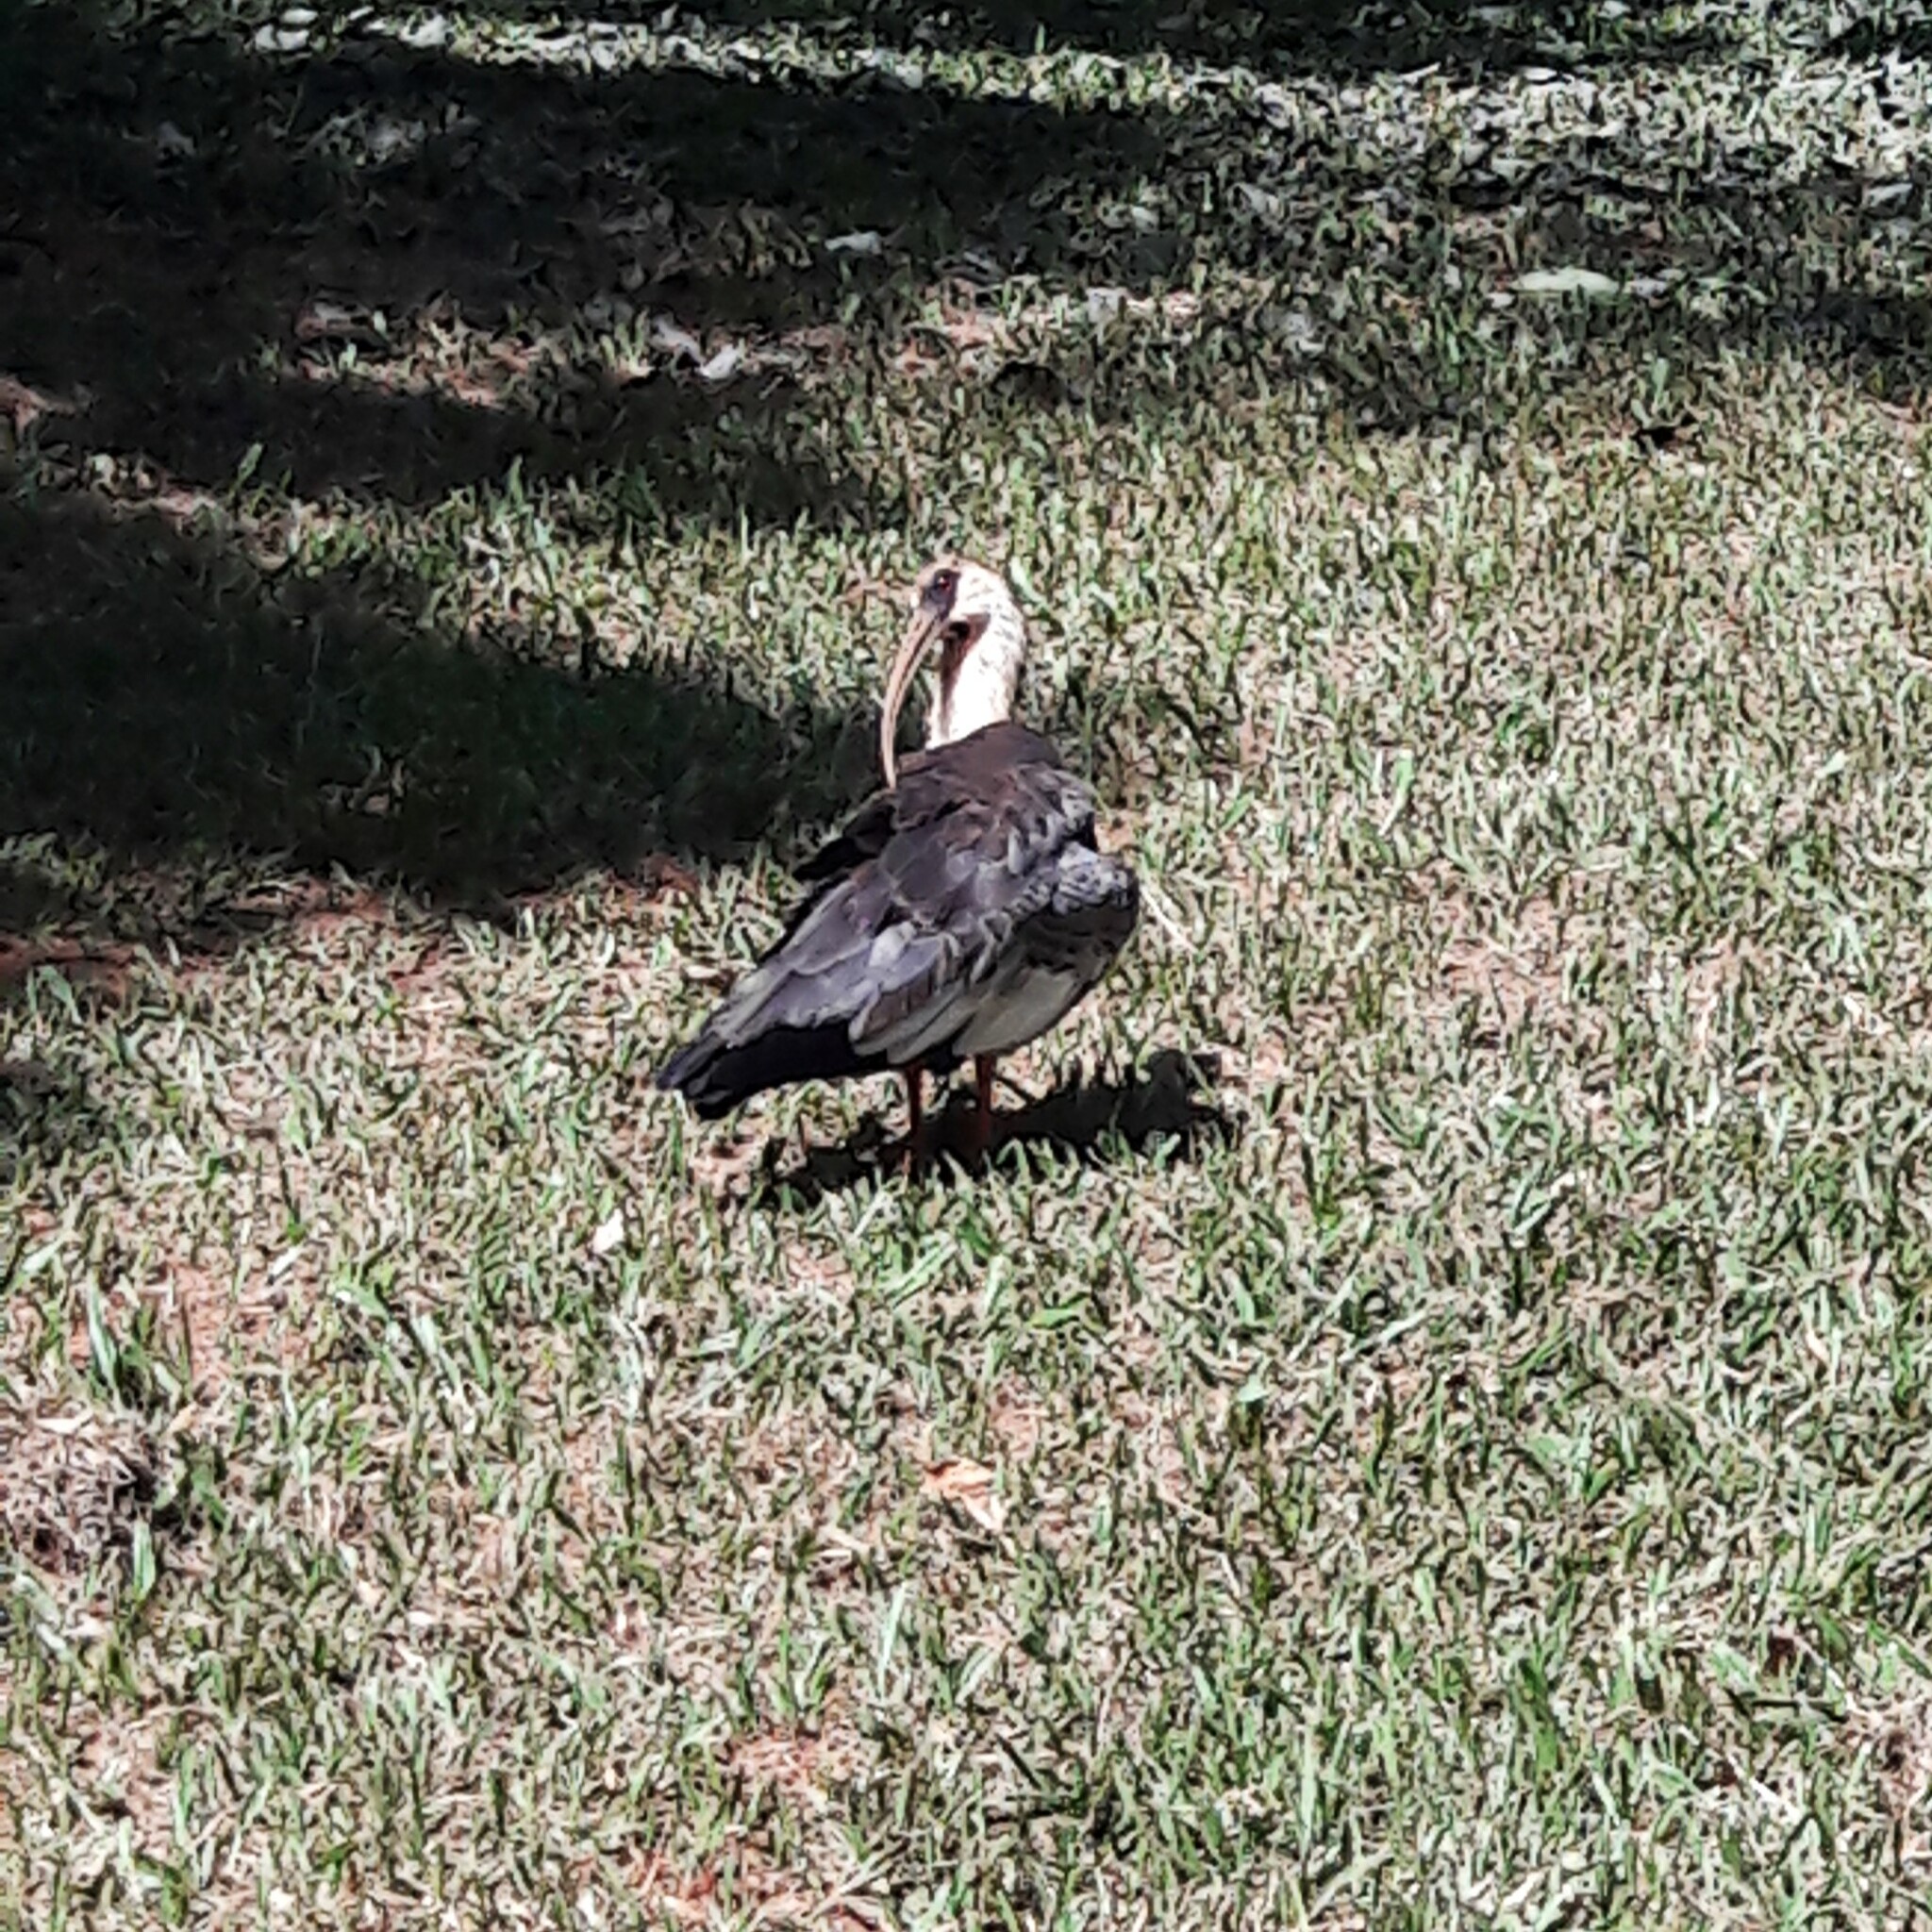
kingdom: Animalia
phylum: Chordata
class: Aves
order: Pelecaniformes
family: Threskiornithidae
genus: Theristicus
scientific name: Theristicus caudatus
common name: Buff-necked ibis
